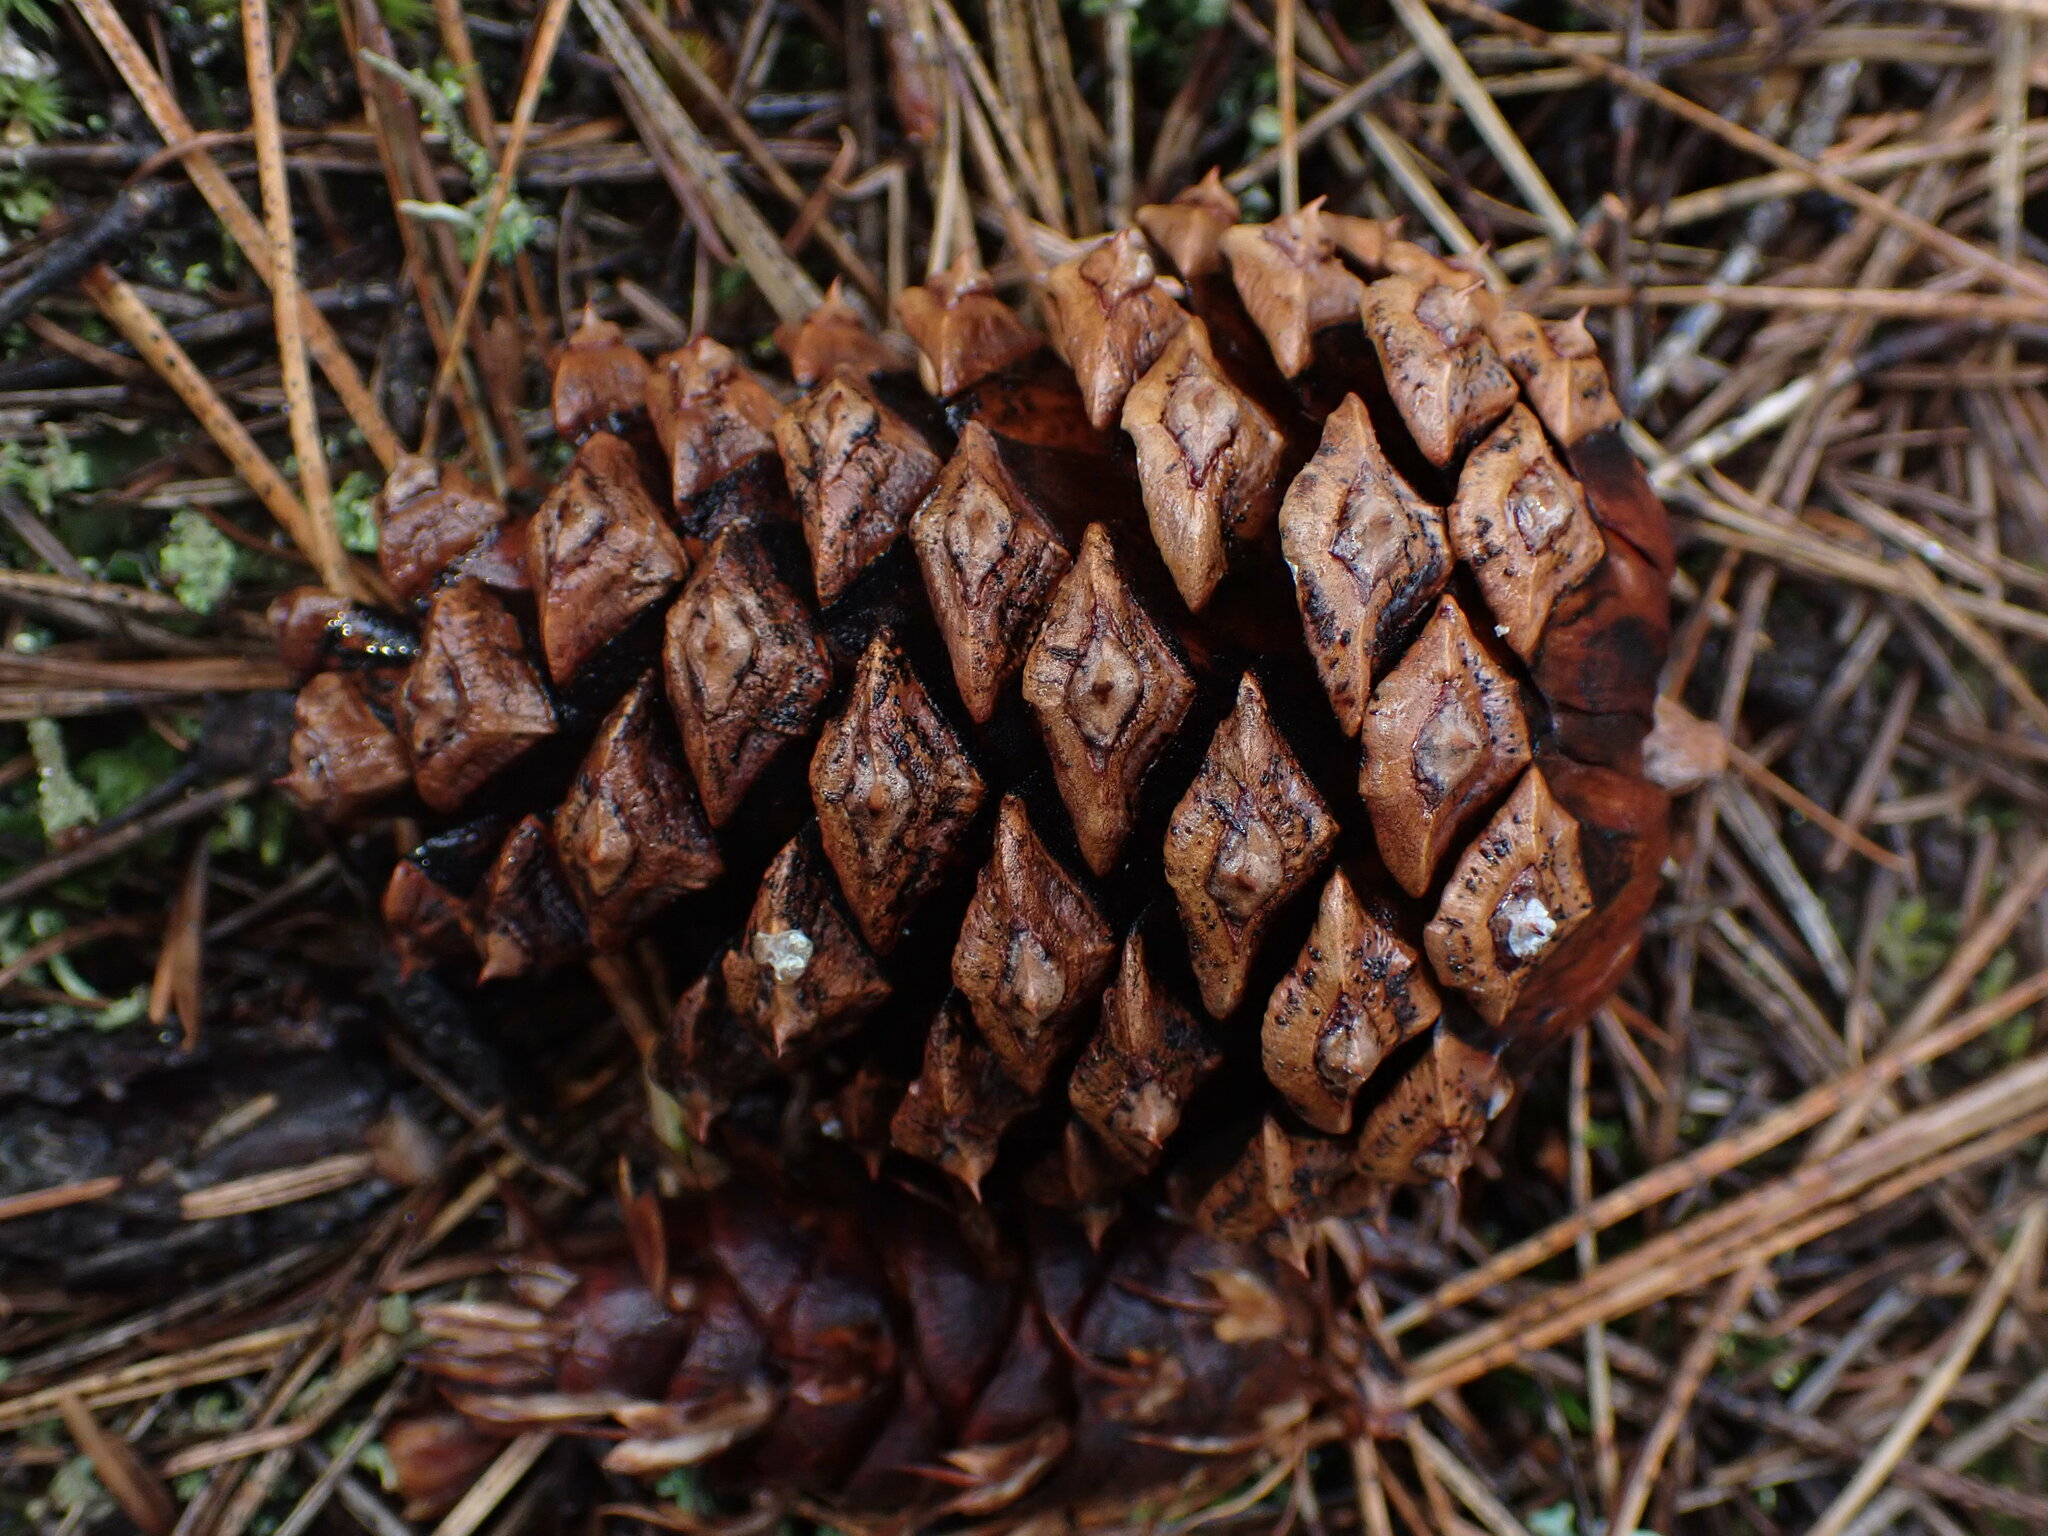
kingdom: Plantae
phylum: Tracheophyta
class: Pinopsida
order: Pinales
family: Pinaceae
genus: Pinus
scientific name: Pinus ponderosa
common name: Western yellow-pine
